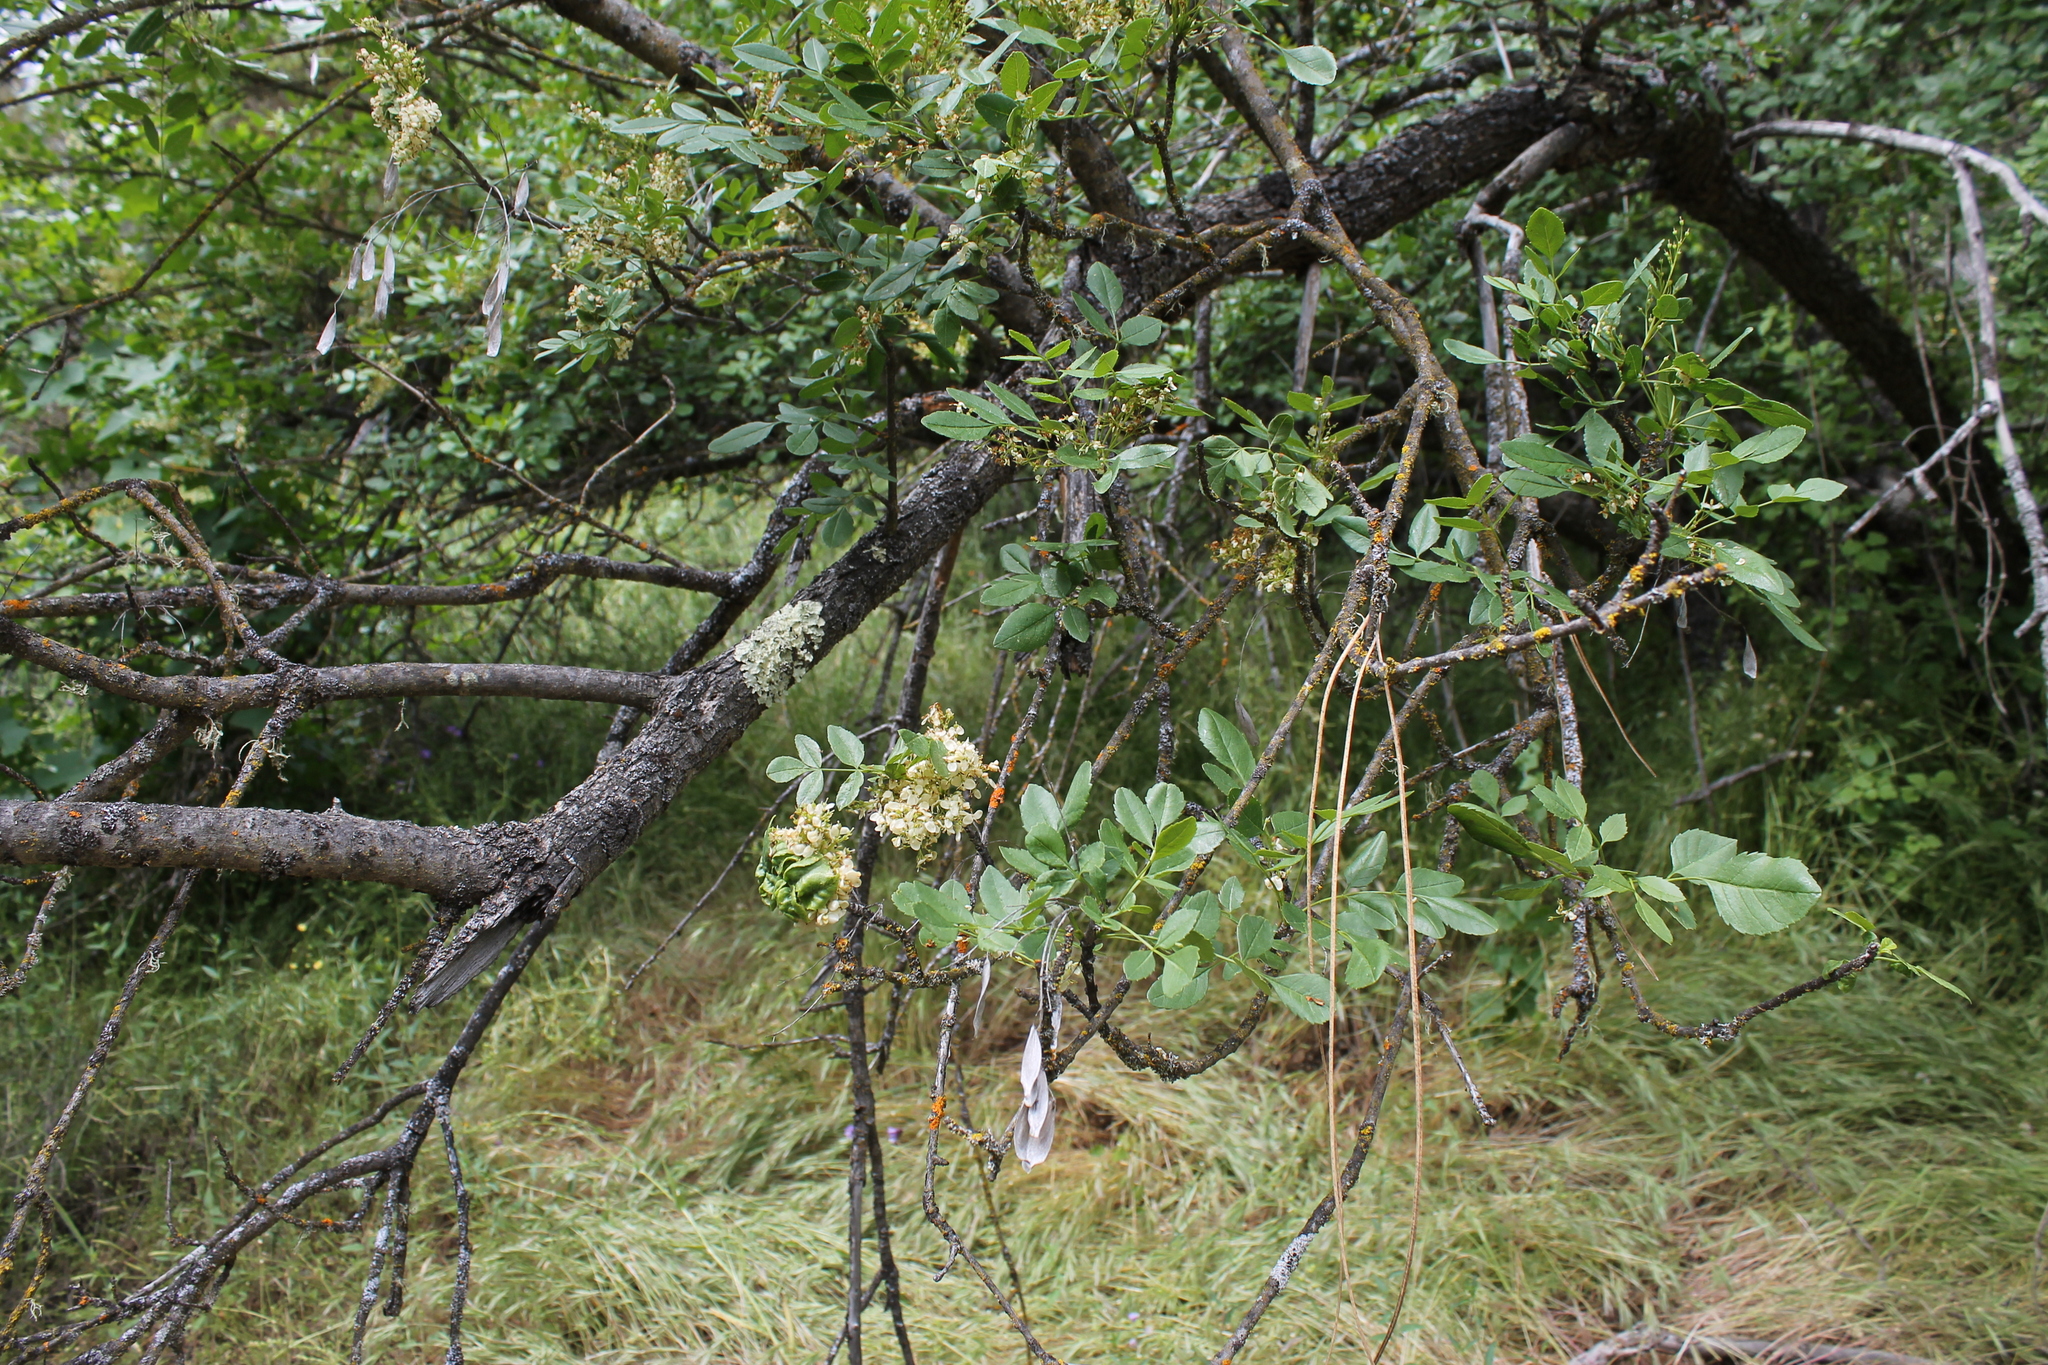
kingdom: Plantae
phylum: Tracheophyta
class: Magnoliopsida
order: Lamiales
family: Oleaceae
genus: Fraxinus
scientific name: Fraxinus dipetala
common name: California ash
